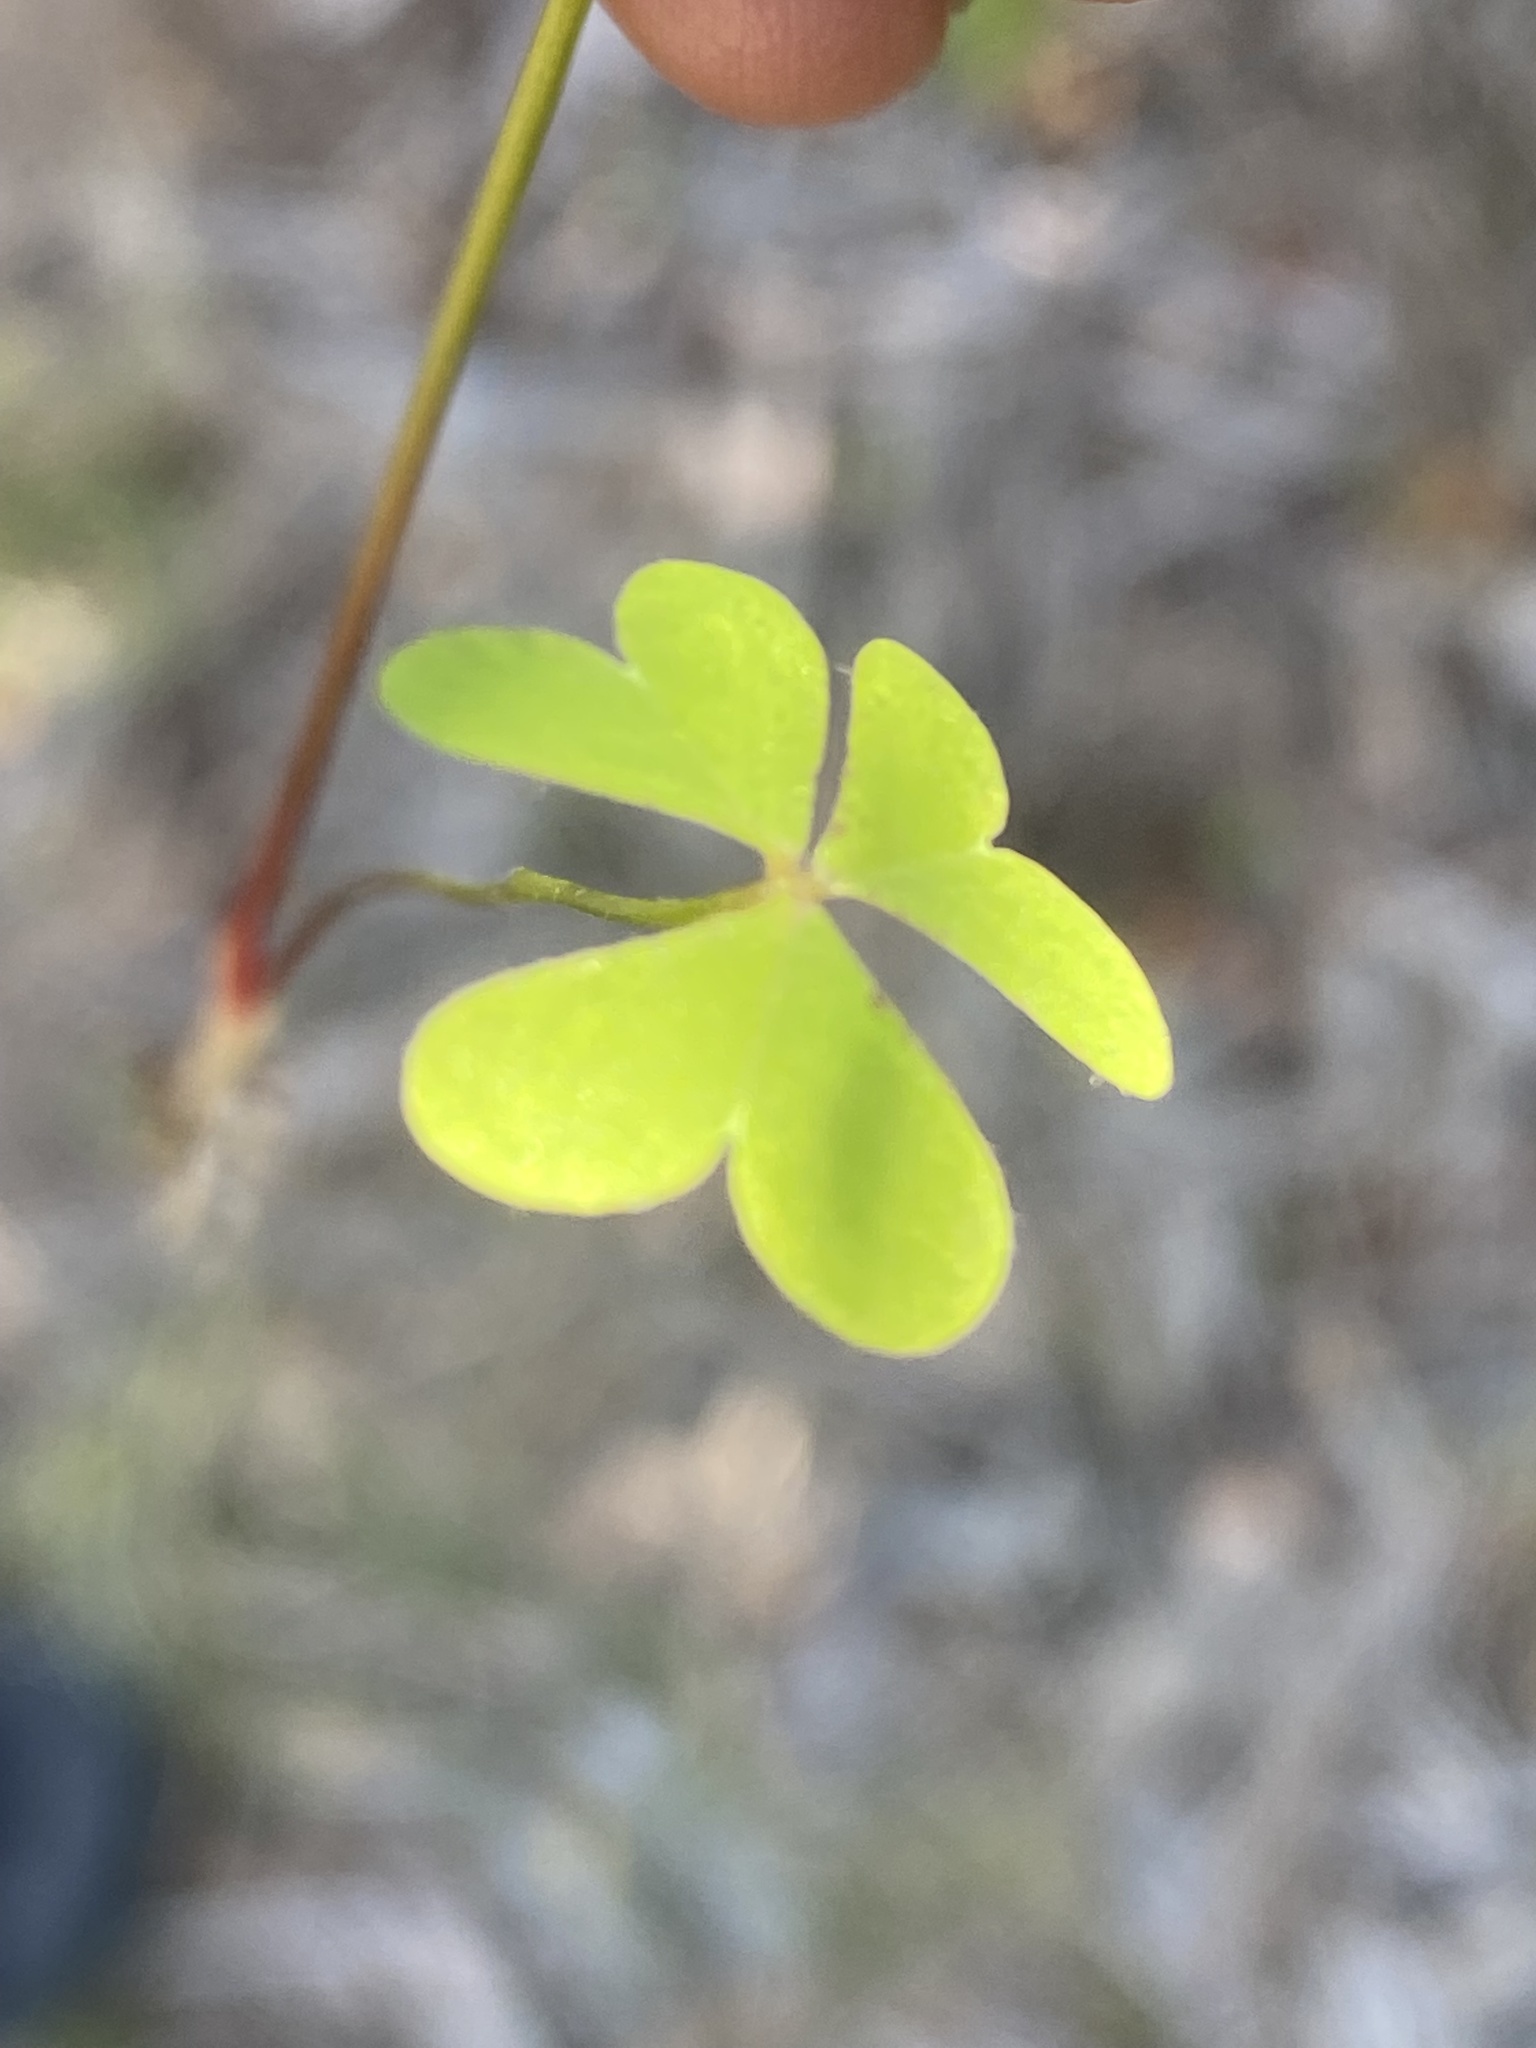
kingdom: Plantae
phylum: Tracheophyta
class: Magnoliopsida
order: Oxalidales
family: Oxalidaceae
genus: Oxalis
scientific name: Oxalis caprina
